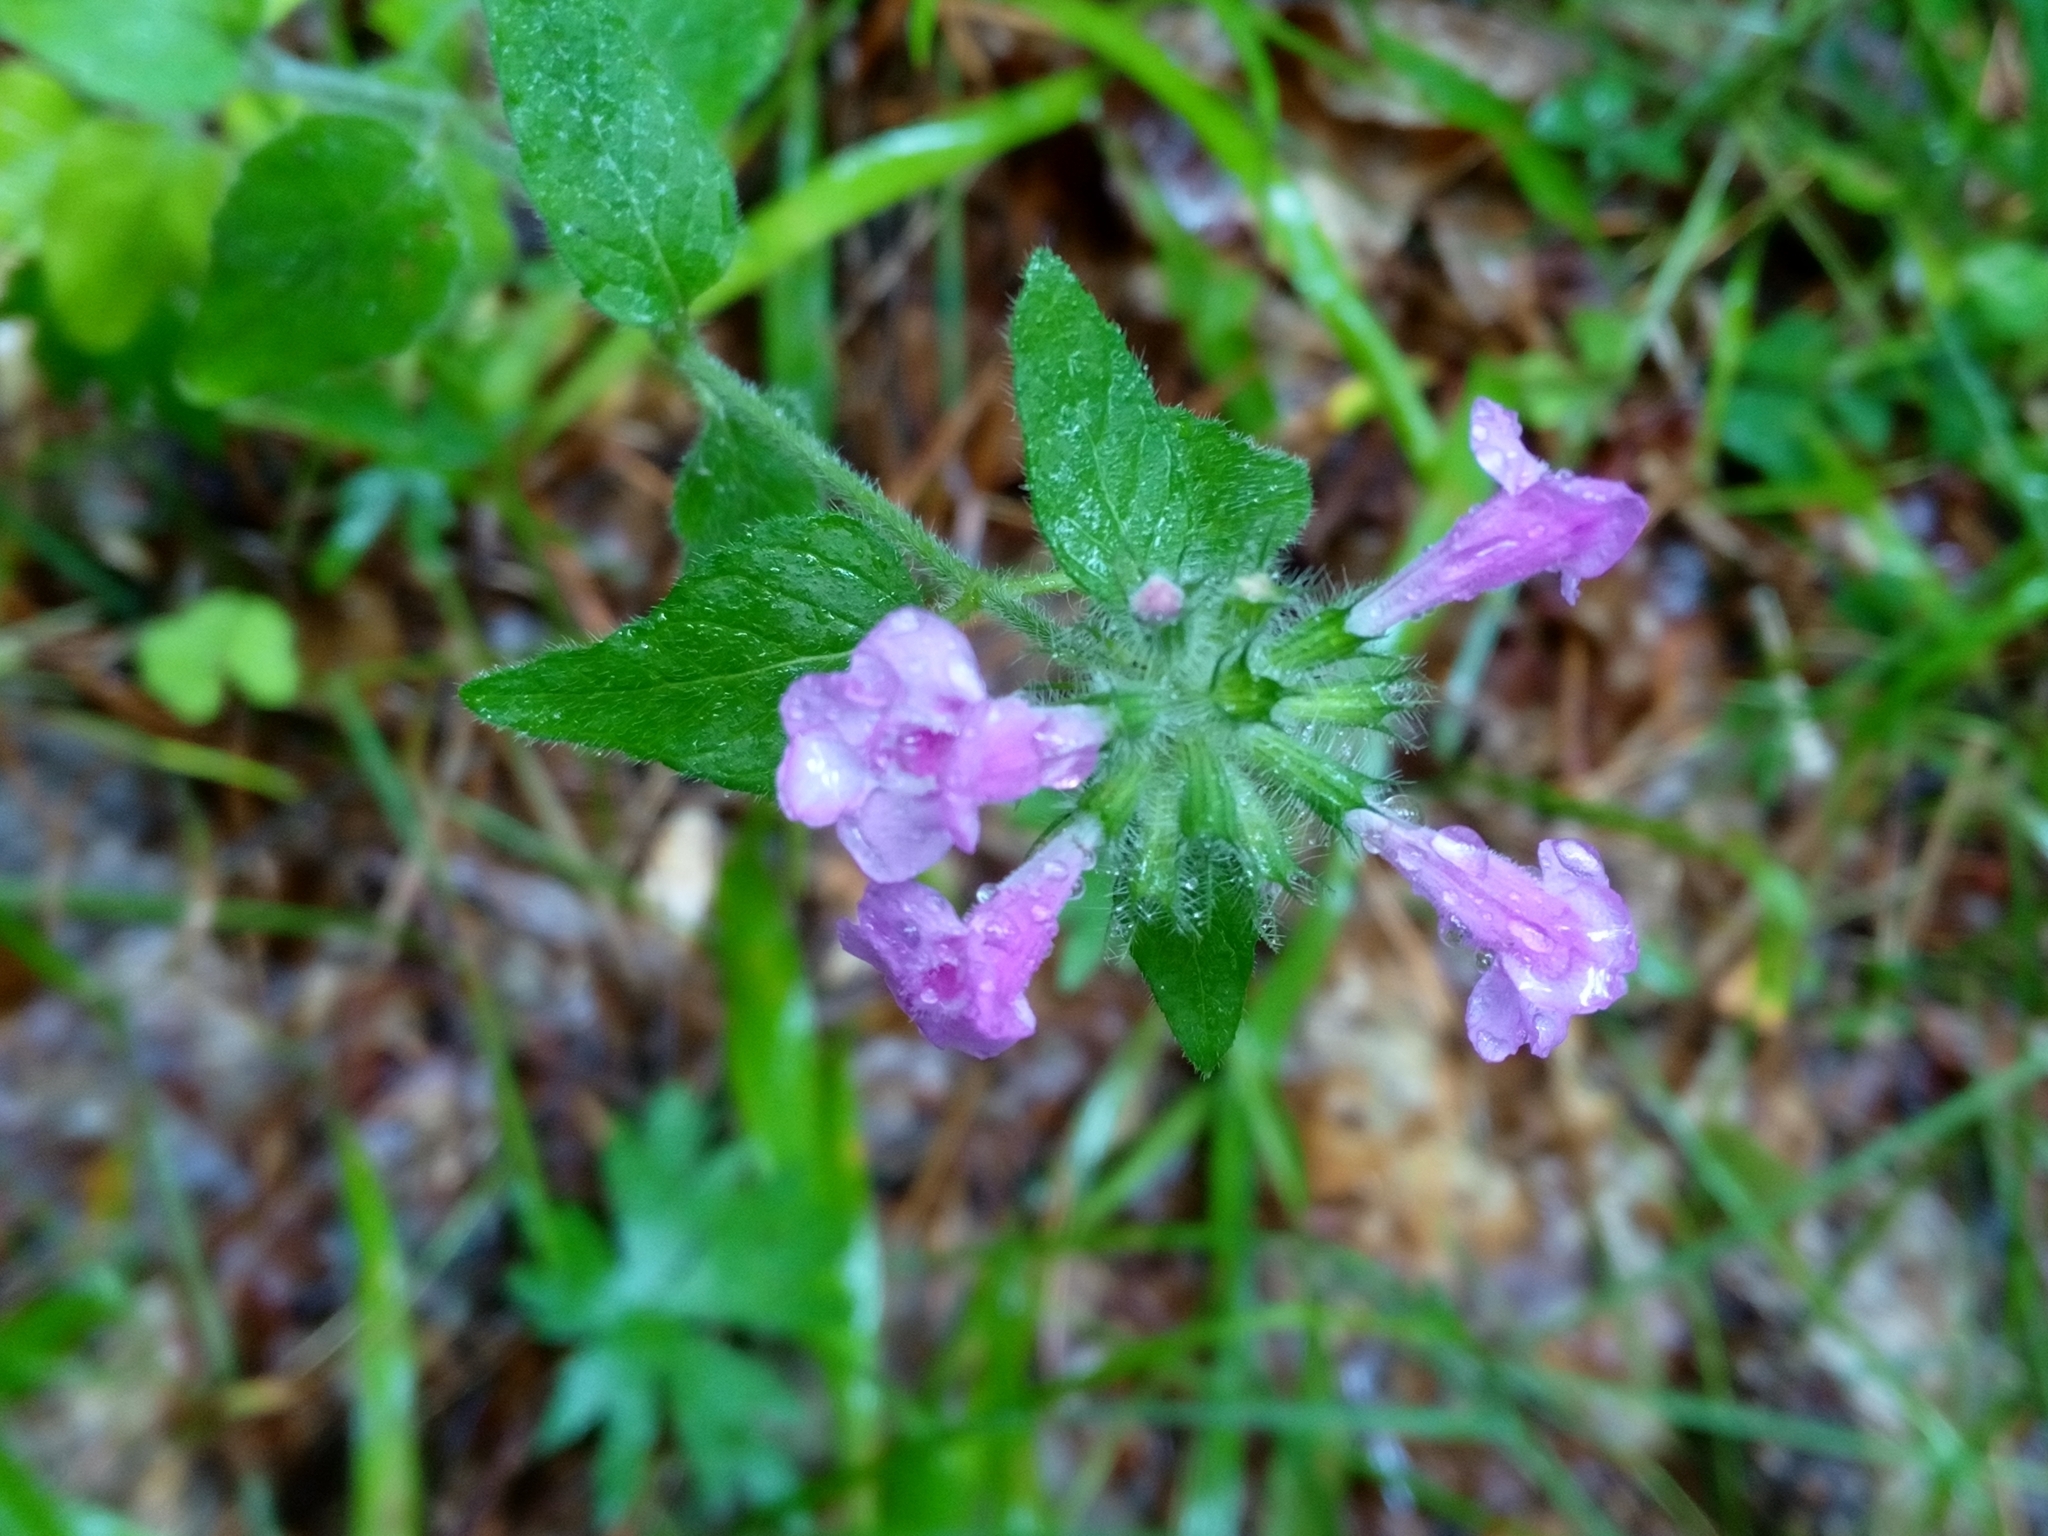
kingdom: Plantae
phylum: Tracheophyta
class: Magnoliopsida
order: Lamiales
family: Lamiaceae
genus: Clinopodium
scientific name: Clinopodium vulgare
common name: Wild basil
